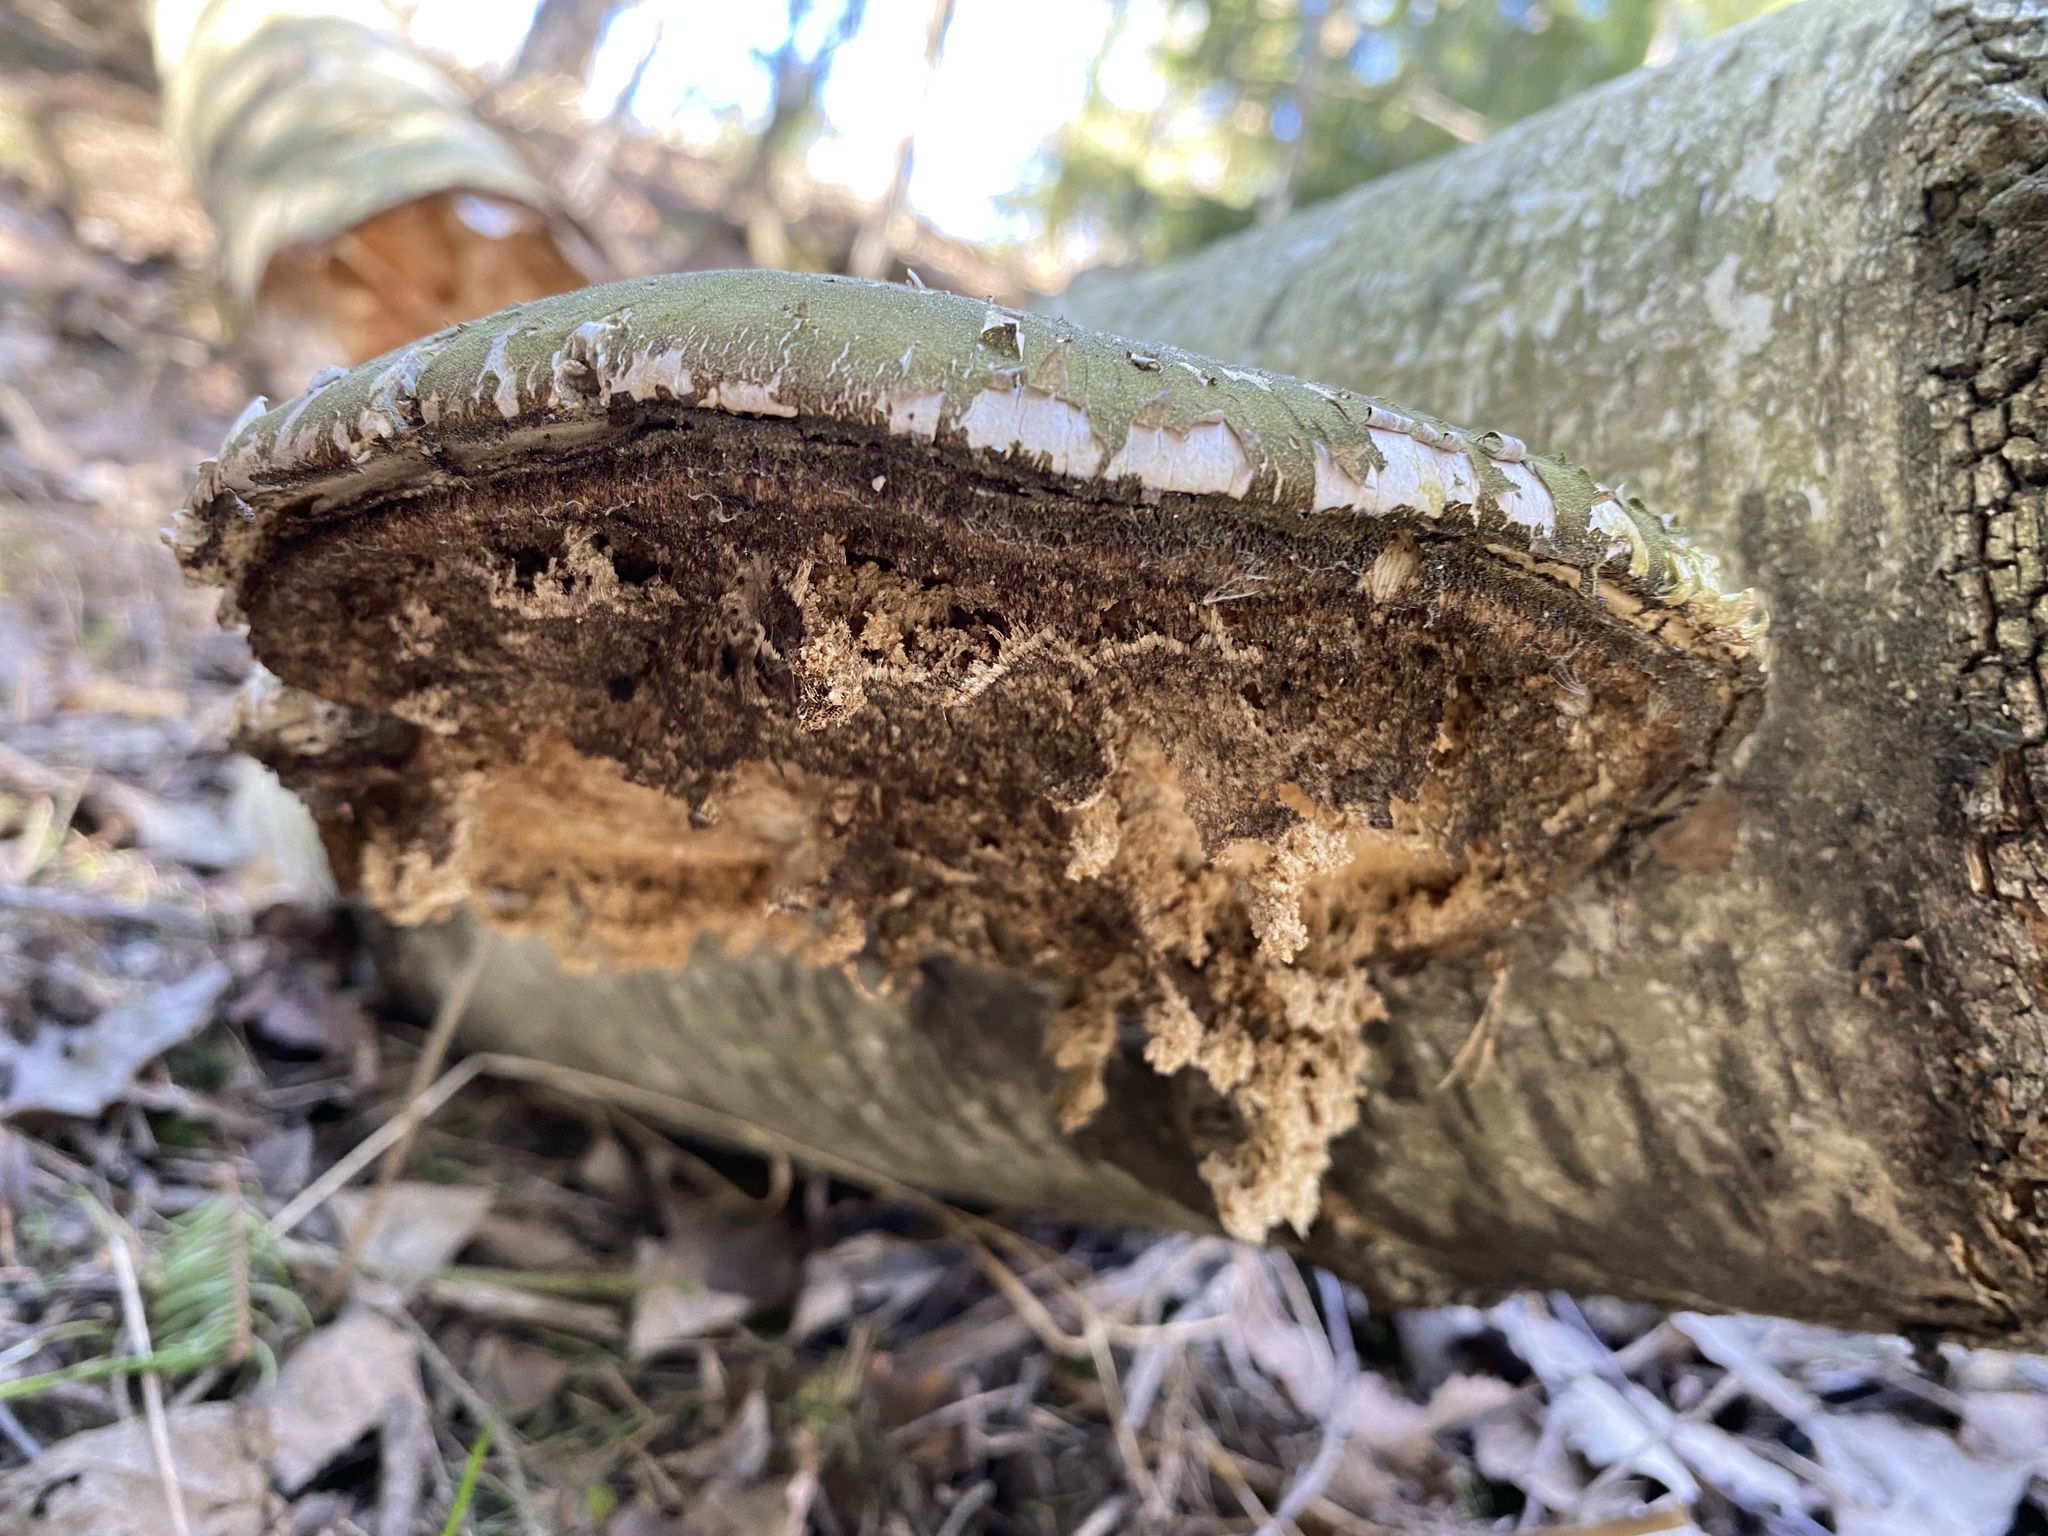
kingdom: Fungi
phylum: Basidiomycota
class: Agaricomycetes
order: Polyporales
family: Fomitopsidaceae
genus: Fomitopsis
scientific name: Fomitopsis betulina
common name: Birch polypore
